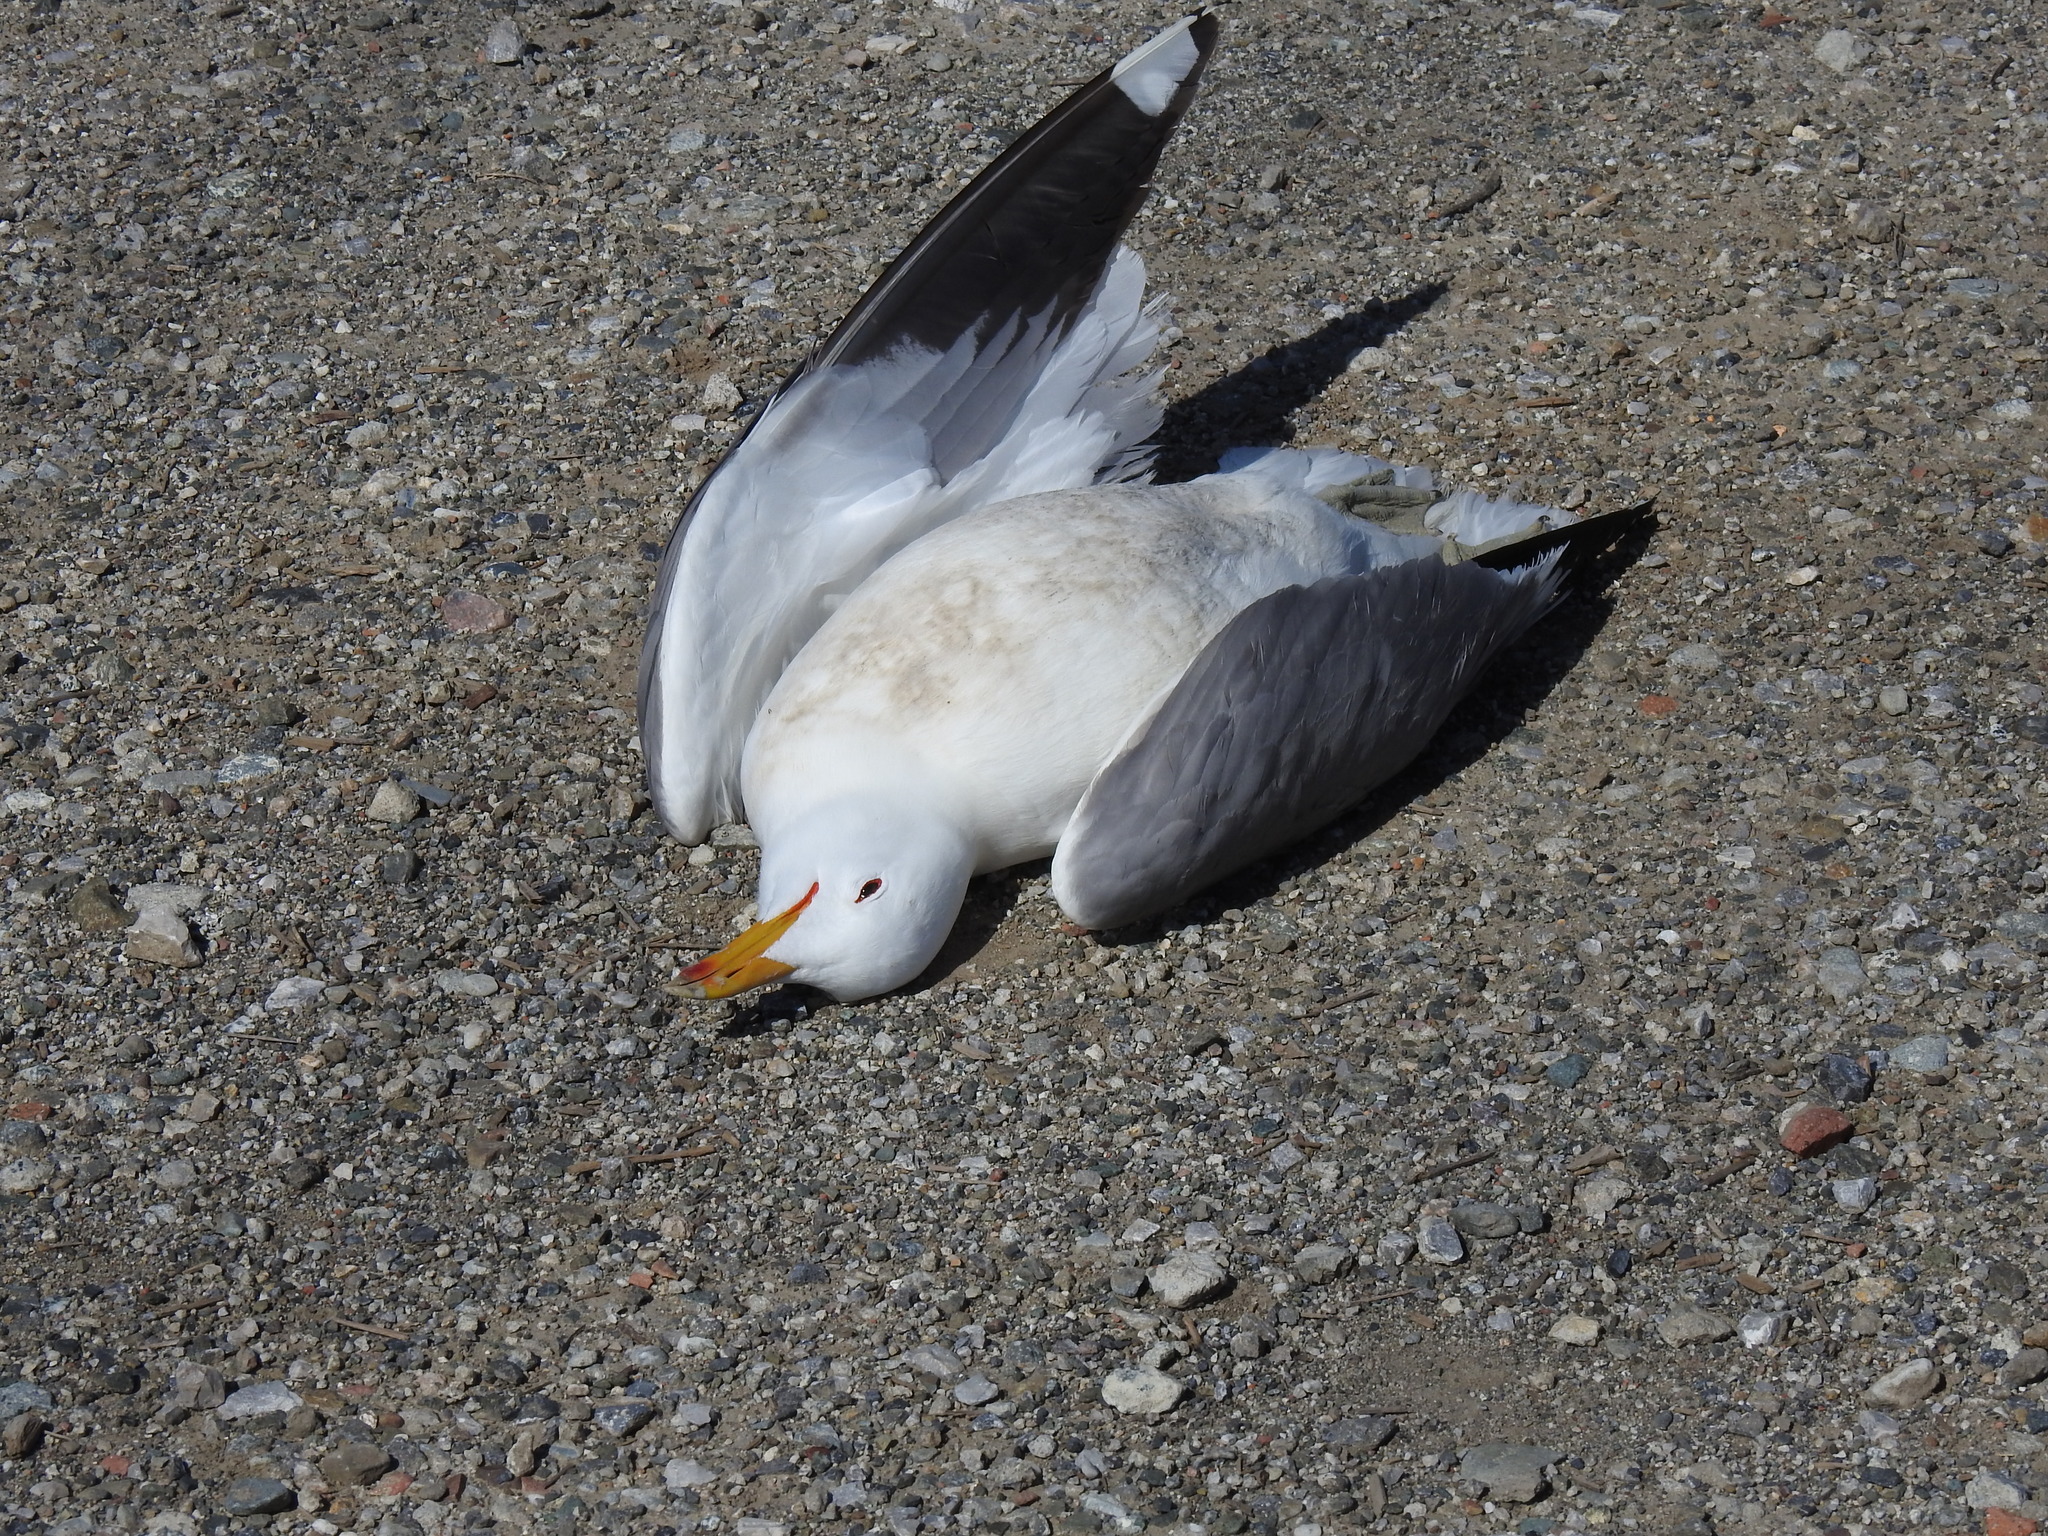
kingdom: Animalia
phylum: Chordata
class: Aves
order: Charadriiformes
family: Laridae
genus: Larus
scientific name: Larus californicus
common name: California gull
